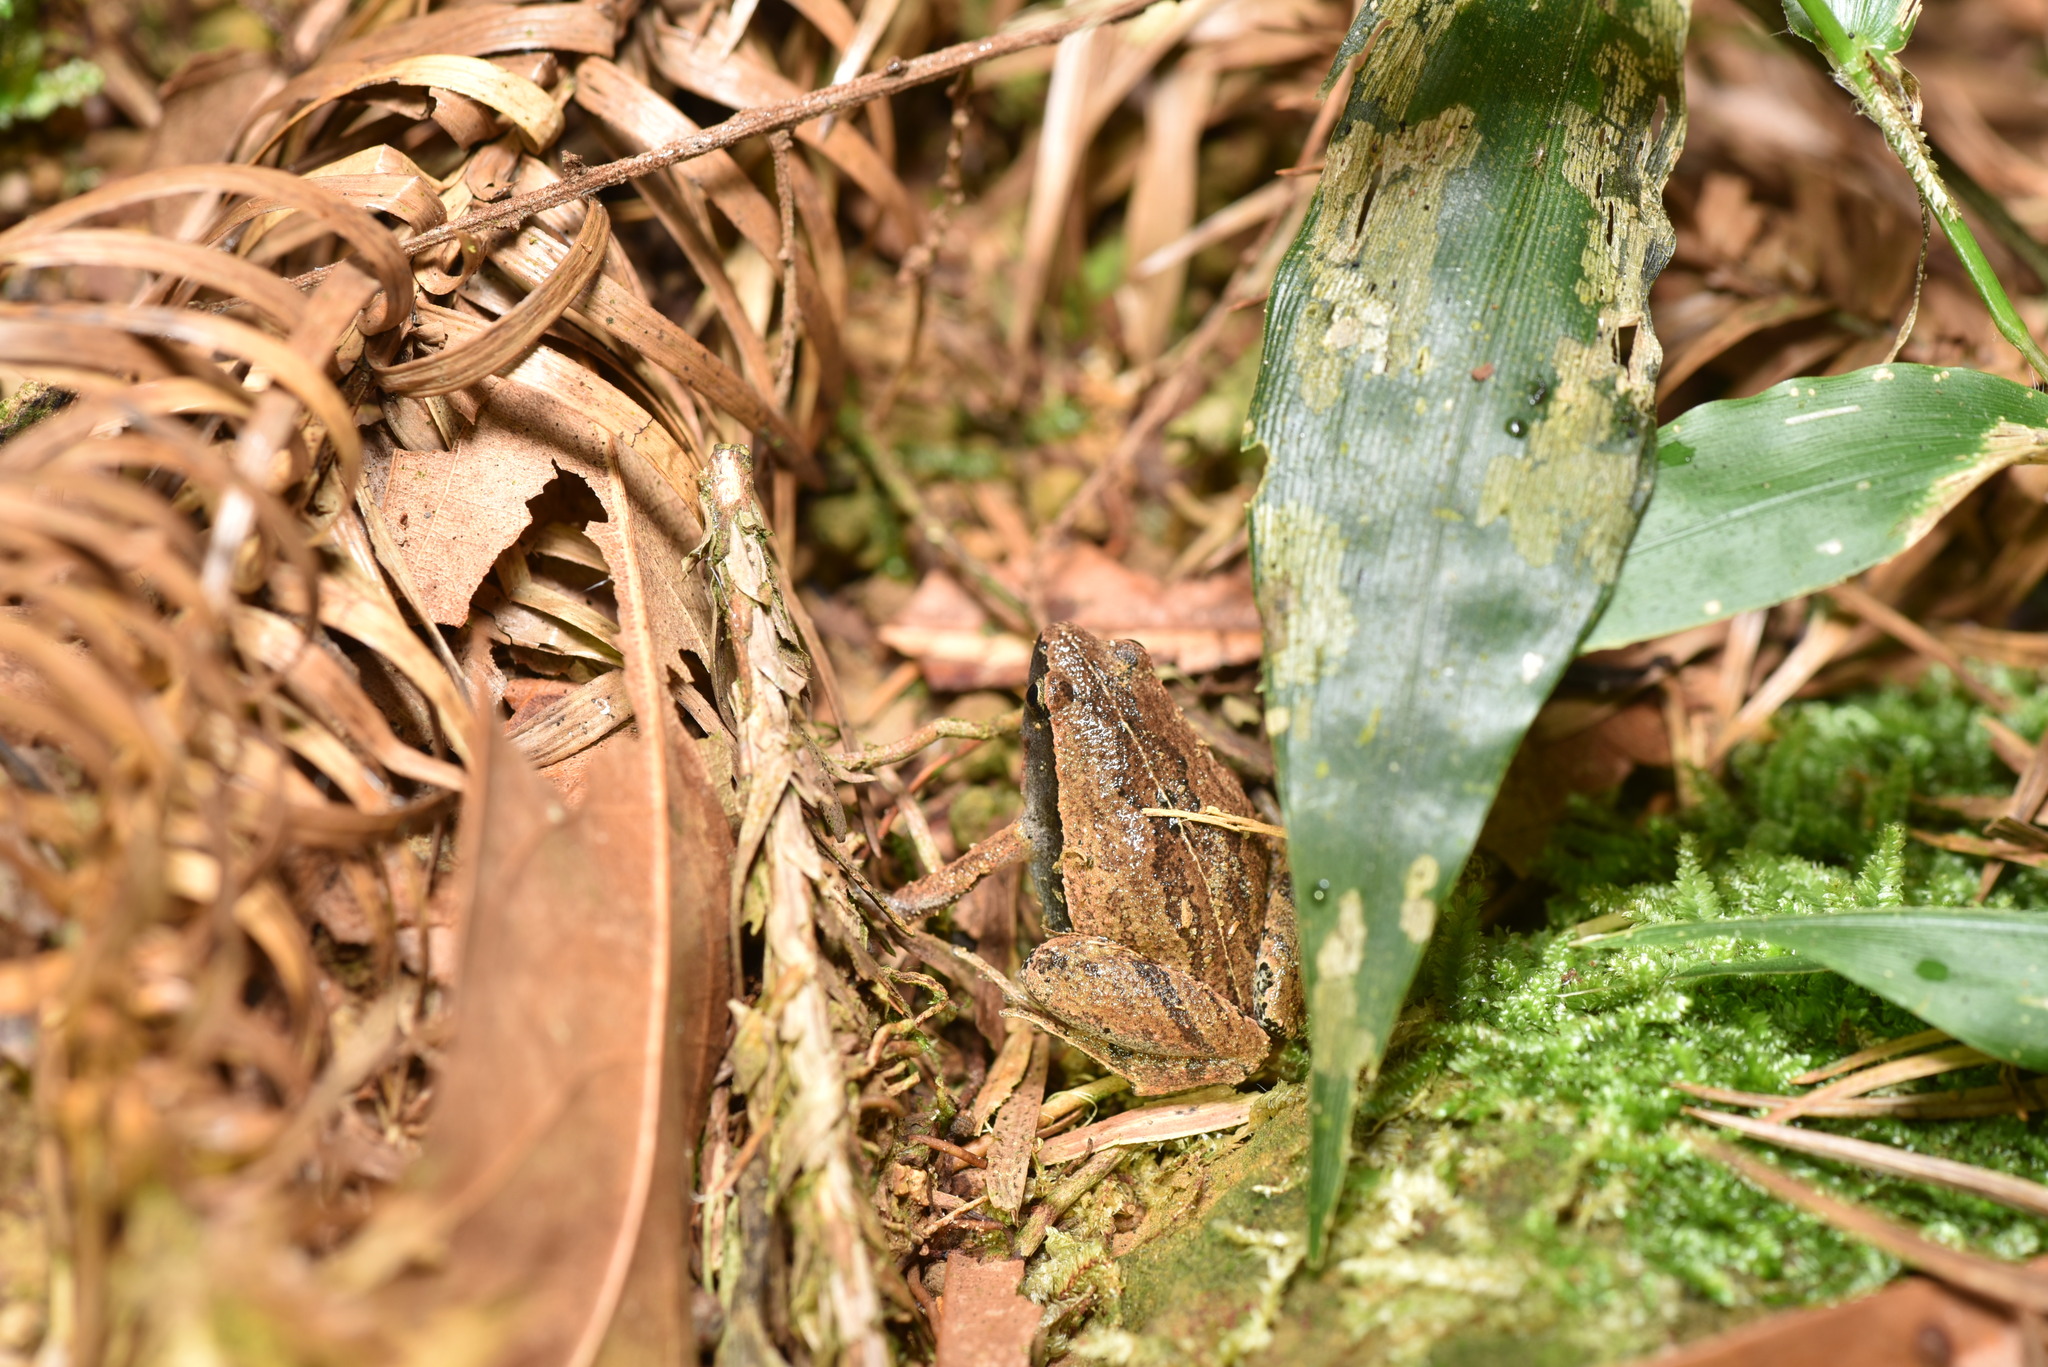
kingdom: Animalia
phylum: Chordata
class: Amphibia
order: Anura
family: Microhylidae
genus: Microhyla
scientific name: Microhyla heymonsi
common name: Taiwan rice frog,dark sided chorus frog
